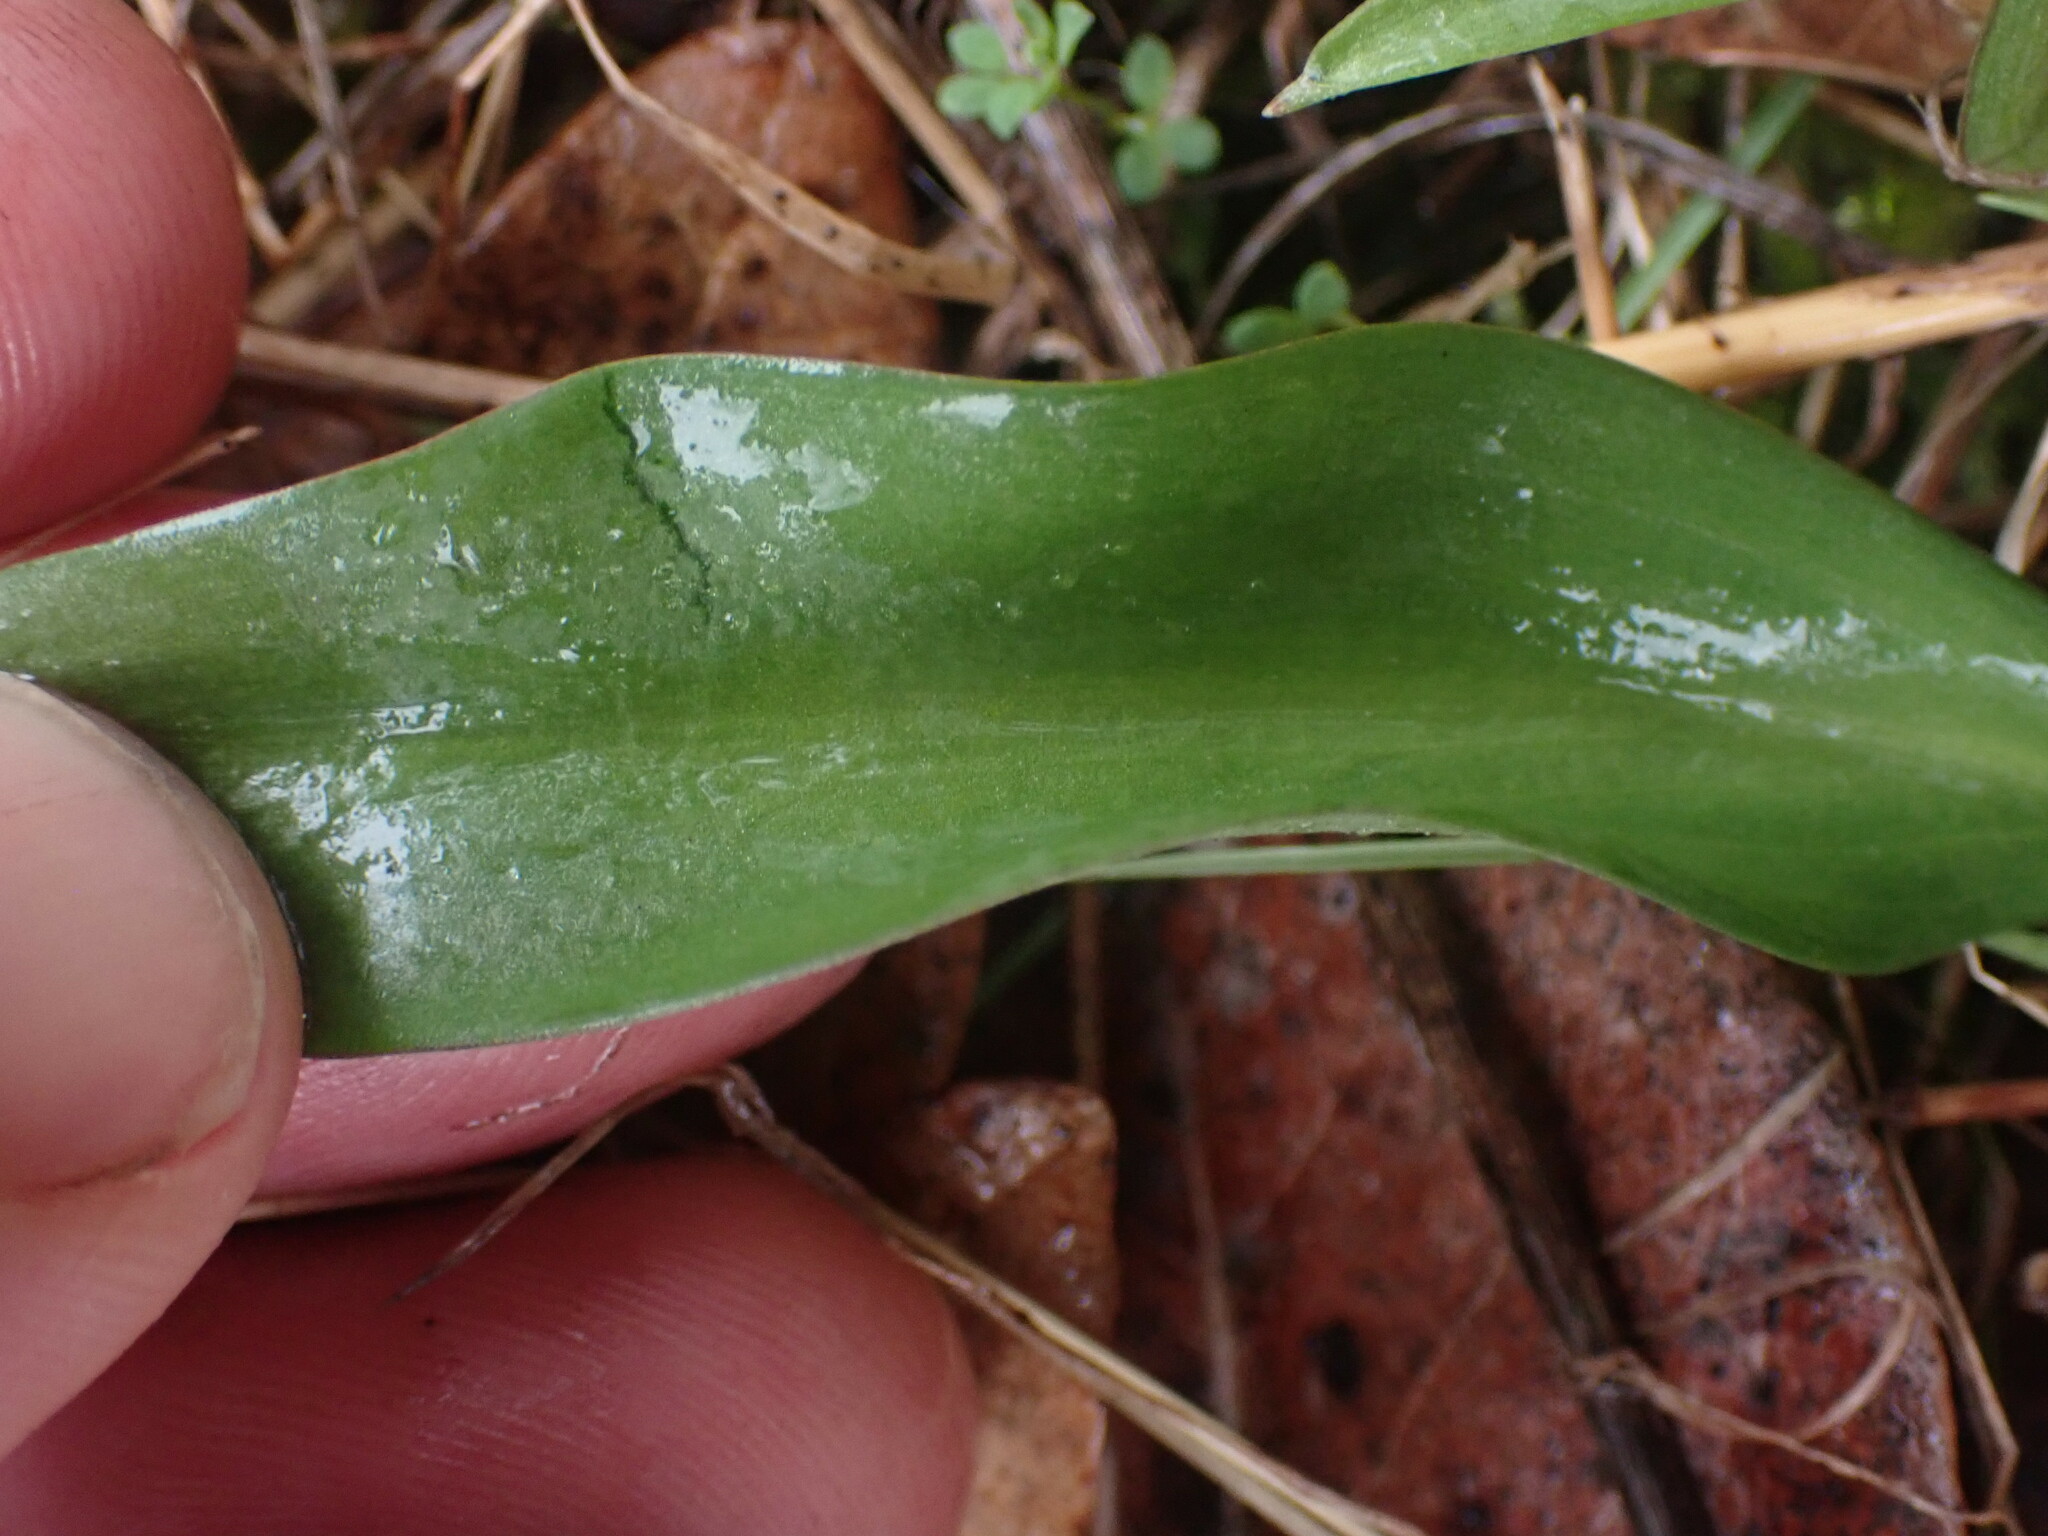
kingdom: Plantae
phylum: Tracheophyta
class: Liliopsida
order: Liliales
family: Liliaceae
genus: Fritillaria
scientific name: Fritillaria affinis
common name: Ojai fritillary
